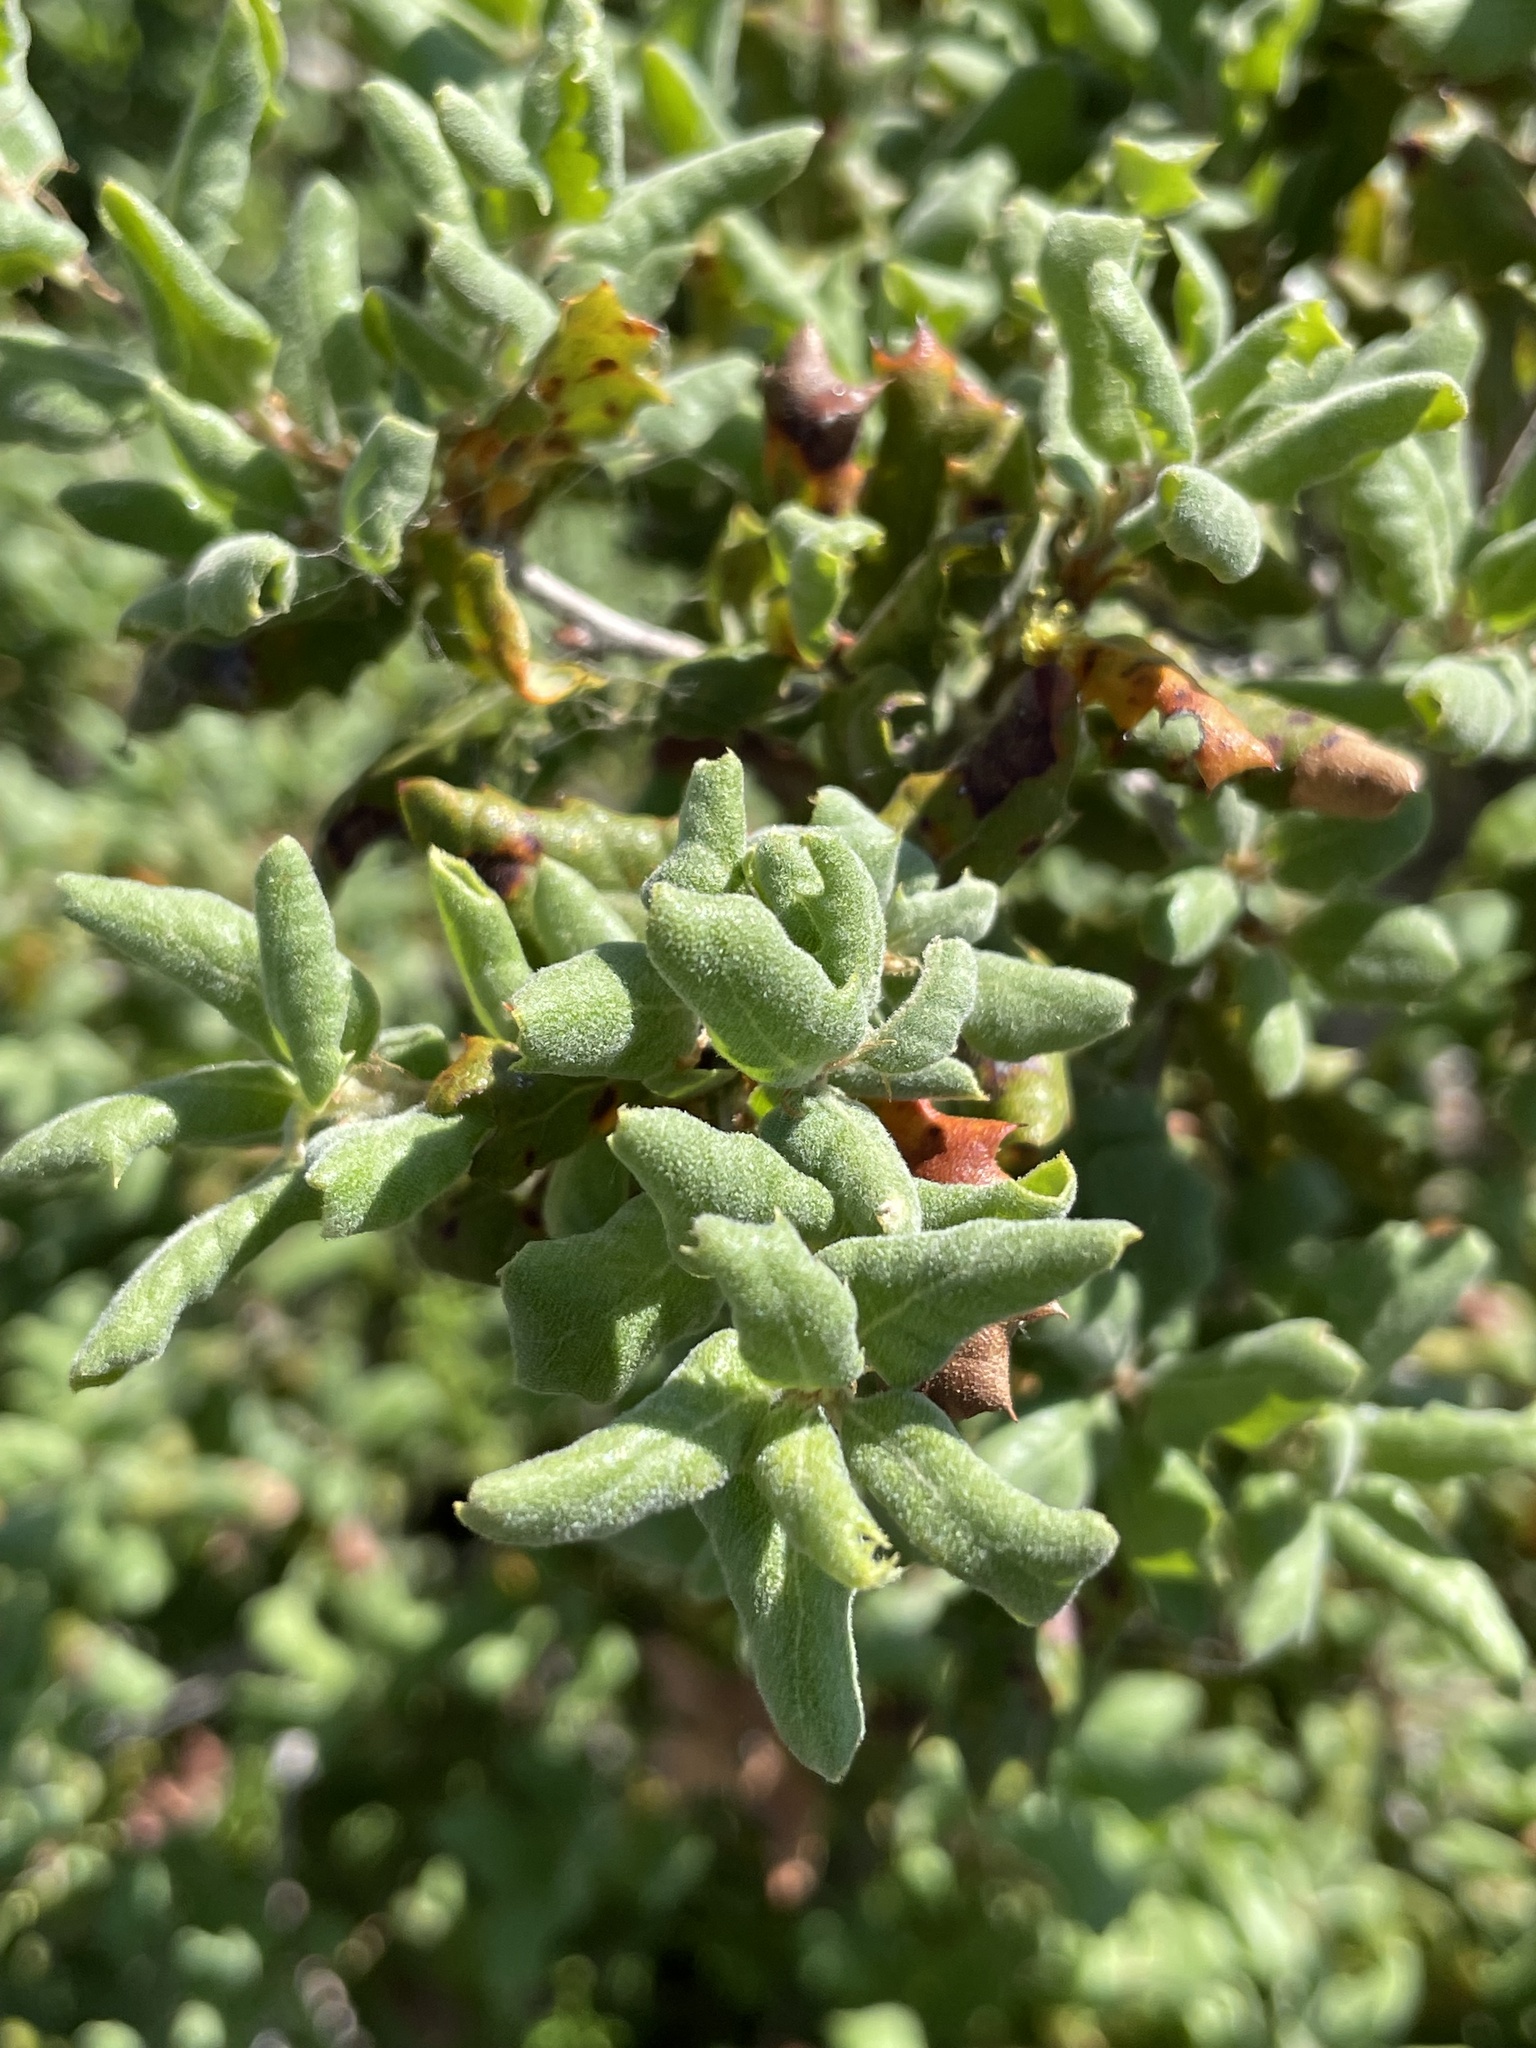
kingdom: Plantae
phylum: Tracheophyta
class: Magnoliopsida
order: Fagales
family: Fagaceae
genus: Quercus
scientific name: Quercus durata
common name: Leather oak
